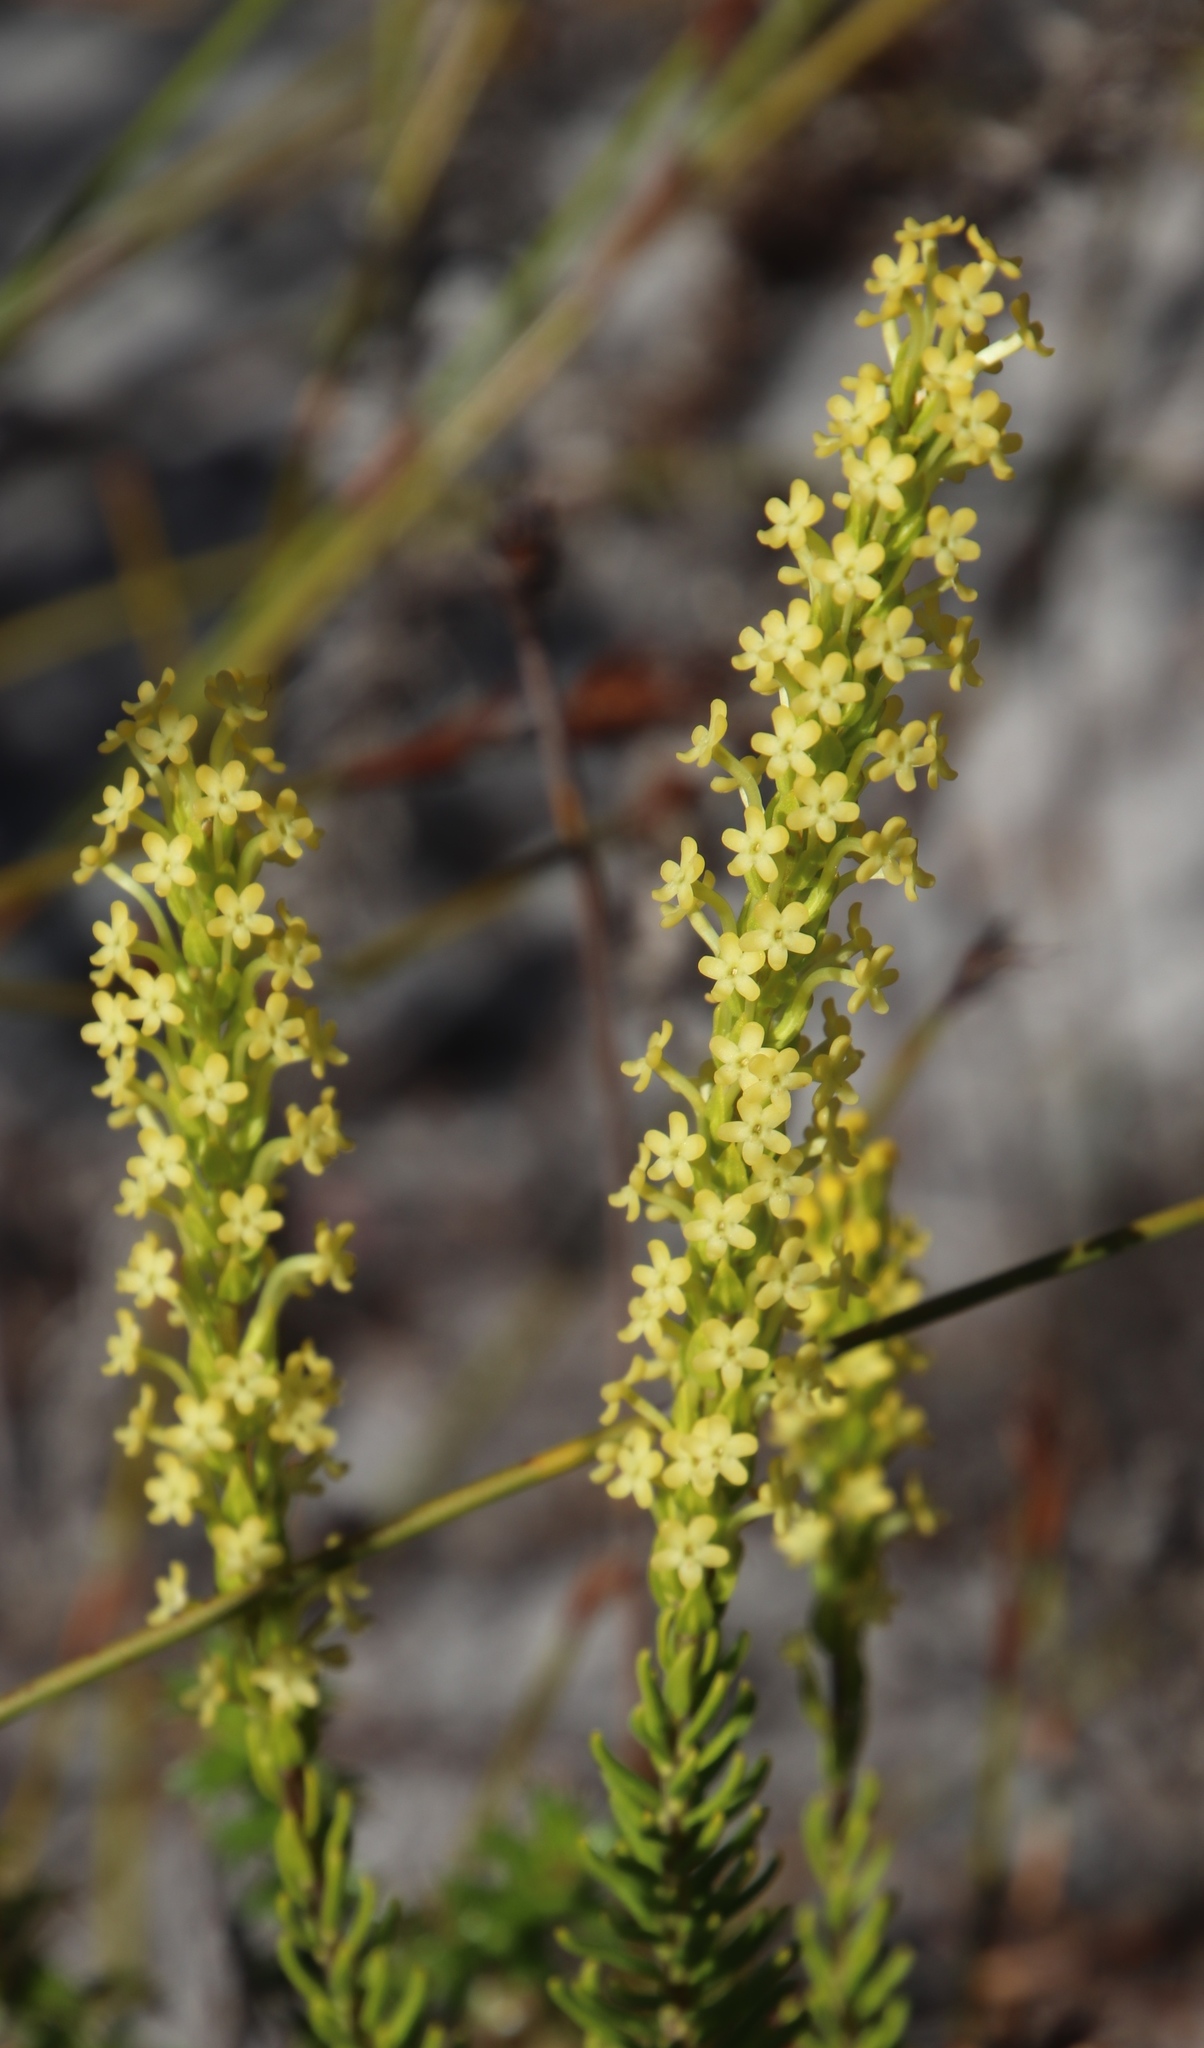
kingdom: Plantae
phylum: Tracheophyta
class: Magnoliopsida
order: Lamiales
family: Scrophulariaceae
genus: Microdon
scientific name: Microdon dubius
